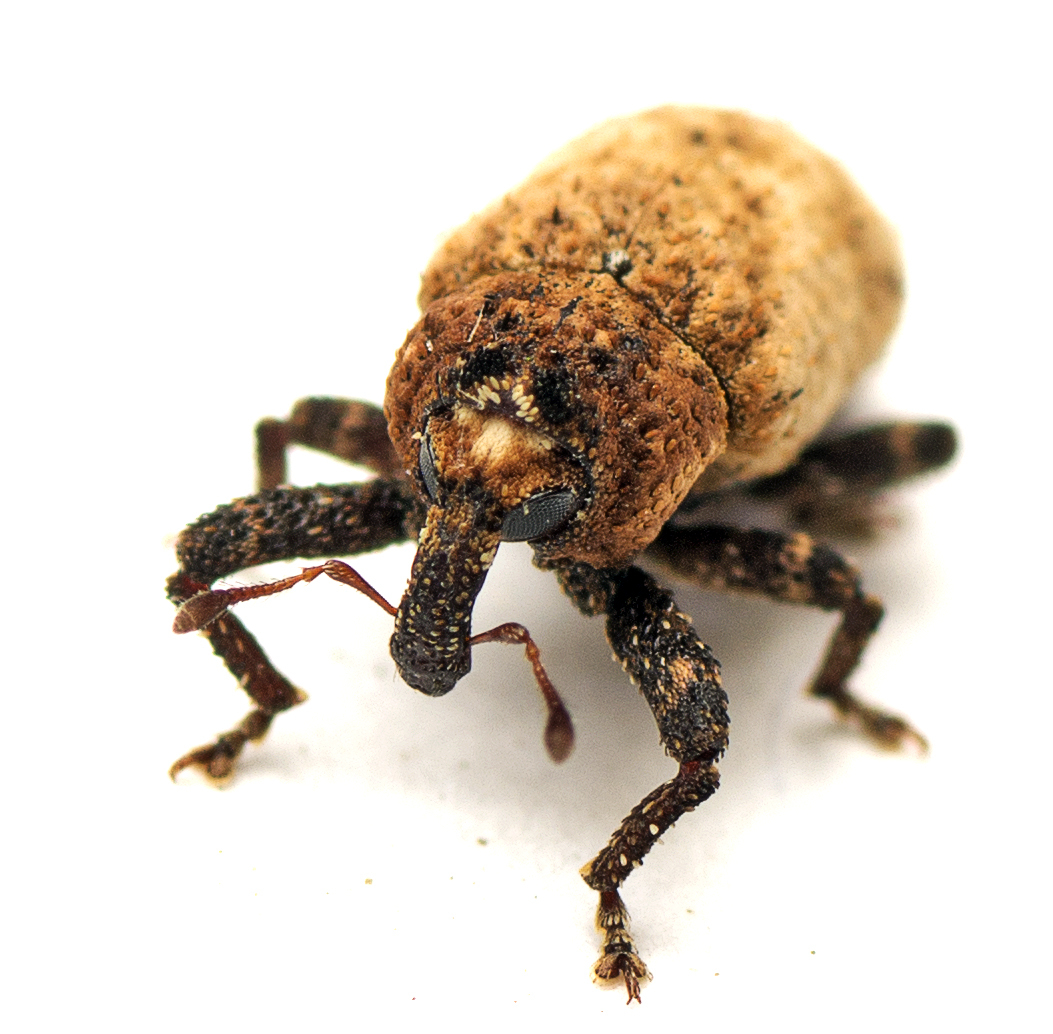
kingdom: Animalia
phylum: Arthropoda
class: Insecta
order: Coleoptera
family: Curculionidae
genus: Orthoporopterus
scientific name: Orthoporopterus elongatus
